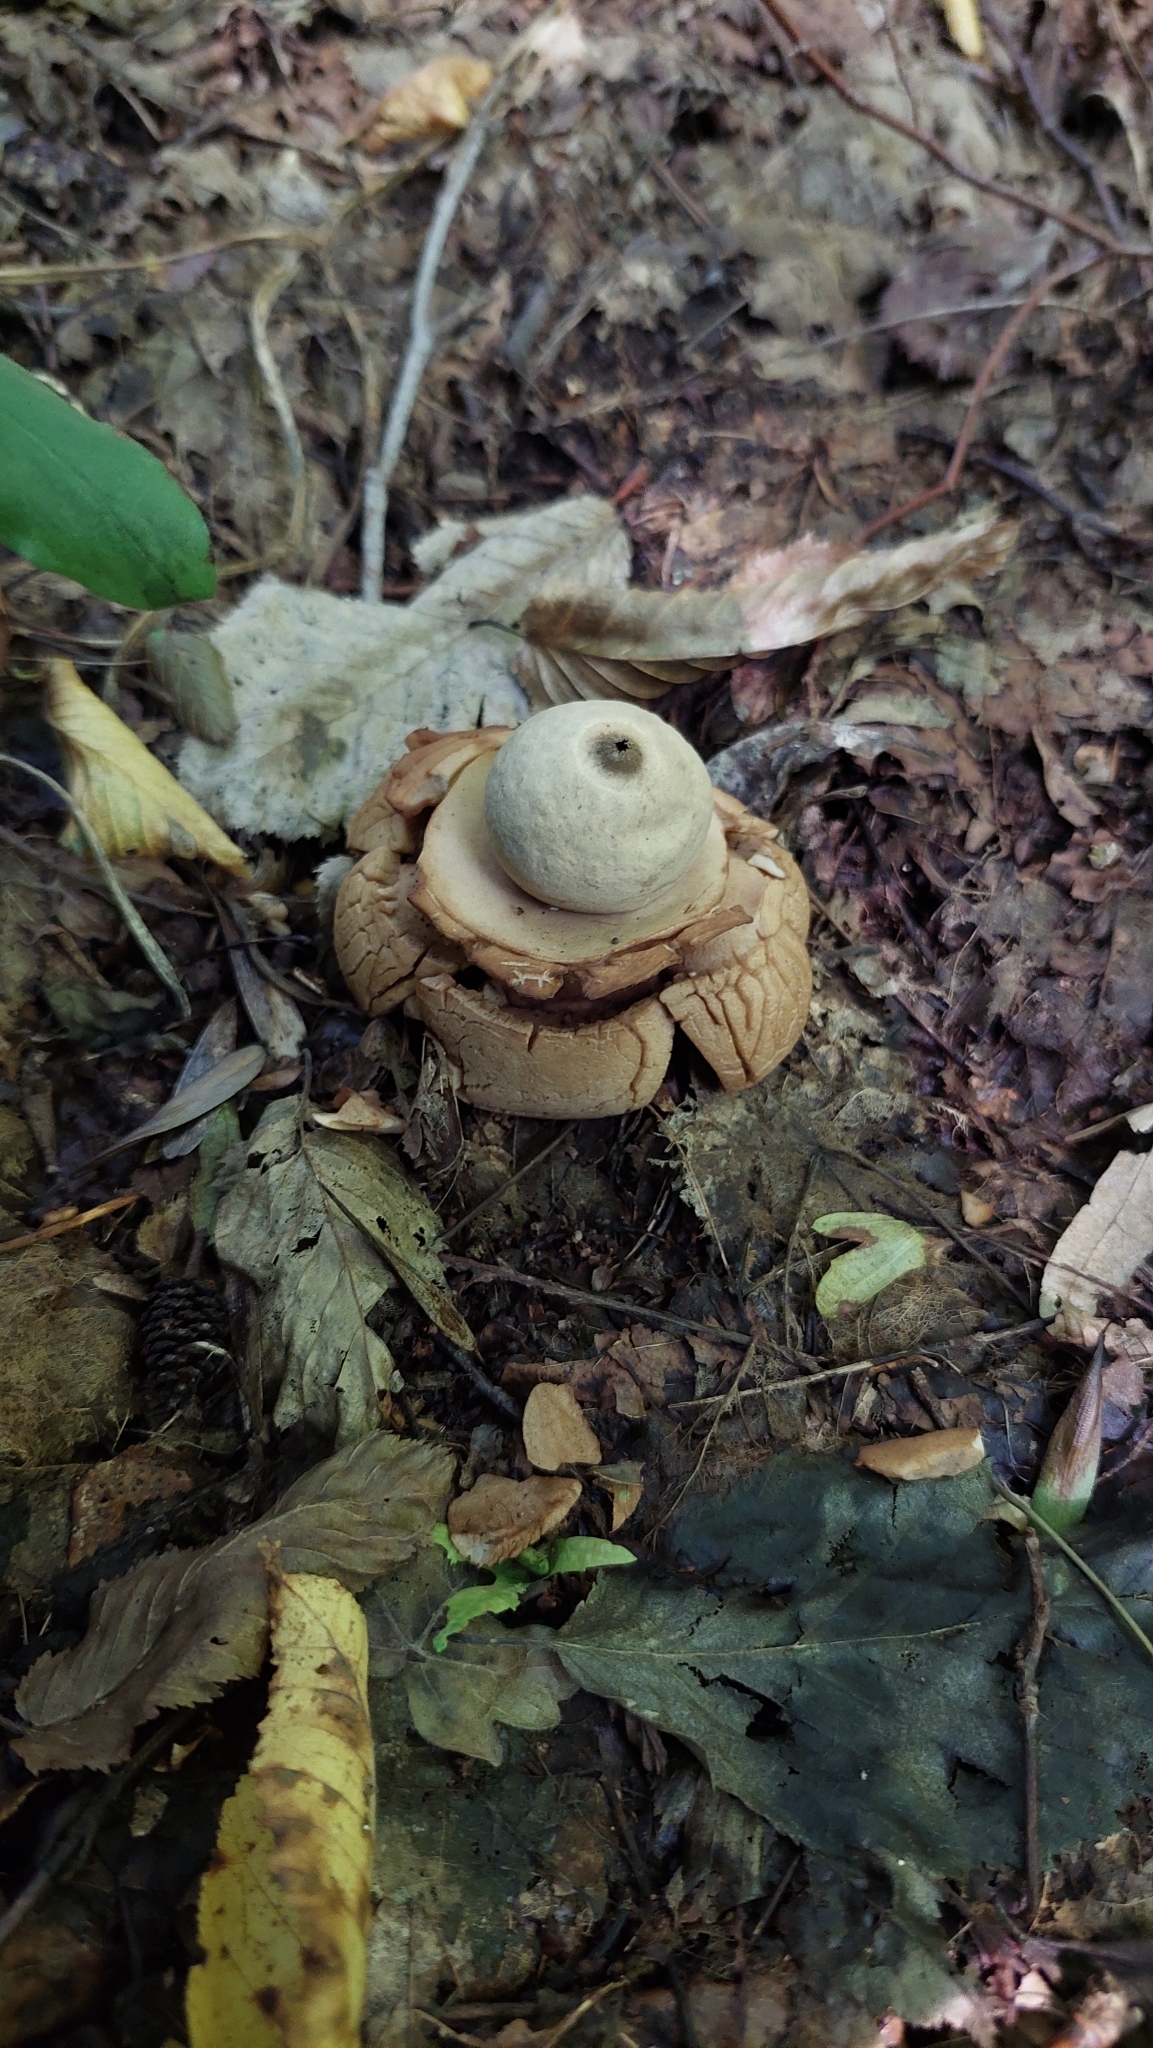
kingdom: Fungi
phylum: Basidiomycota
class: Agaricomycetes
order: Geastrales
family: Geastraceae
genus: Geastrum
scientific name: Geastrum michelianum
